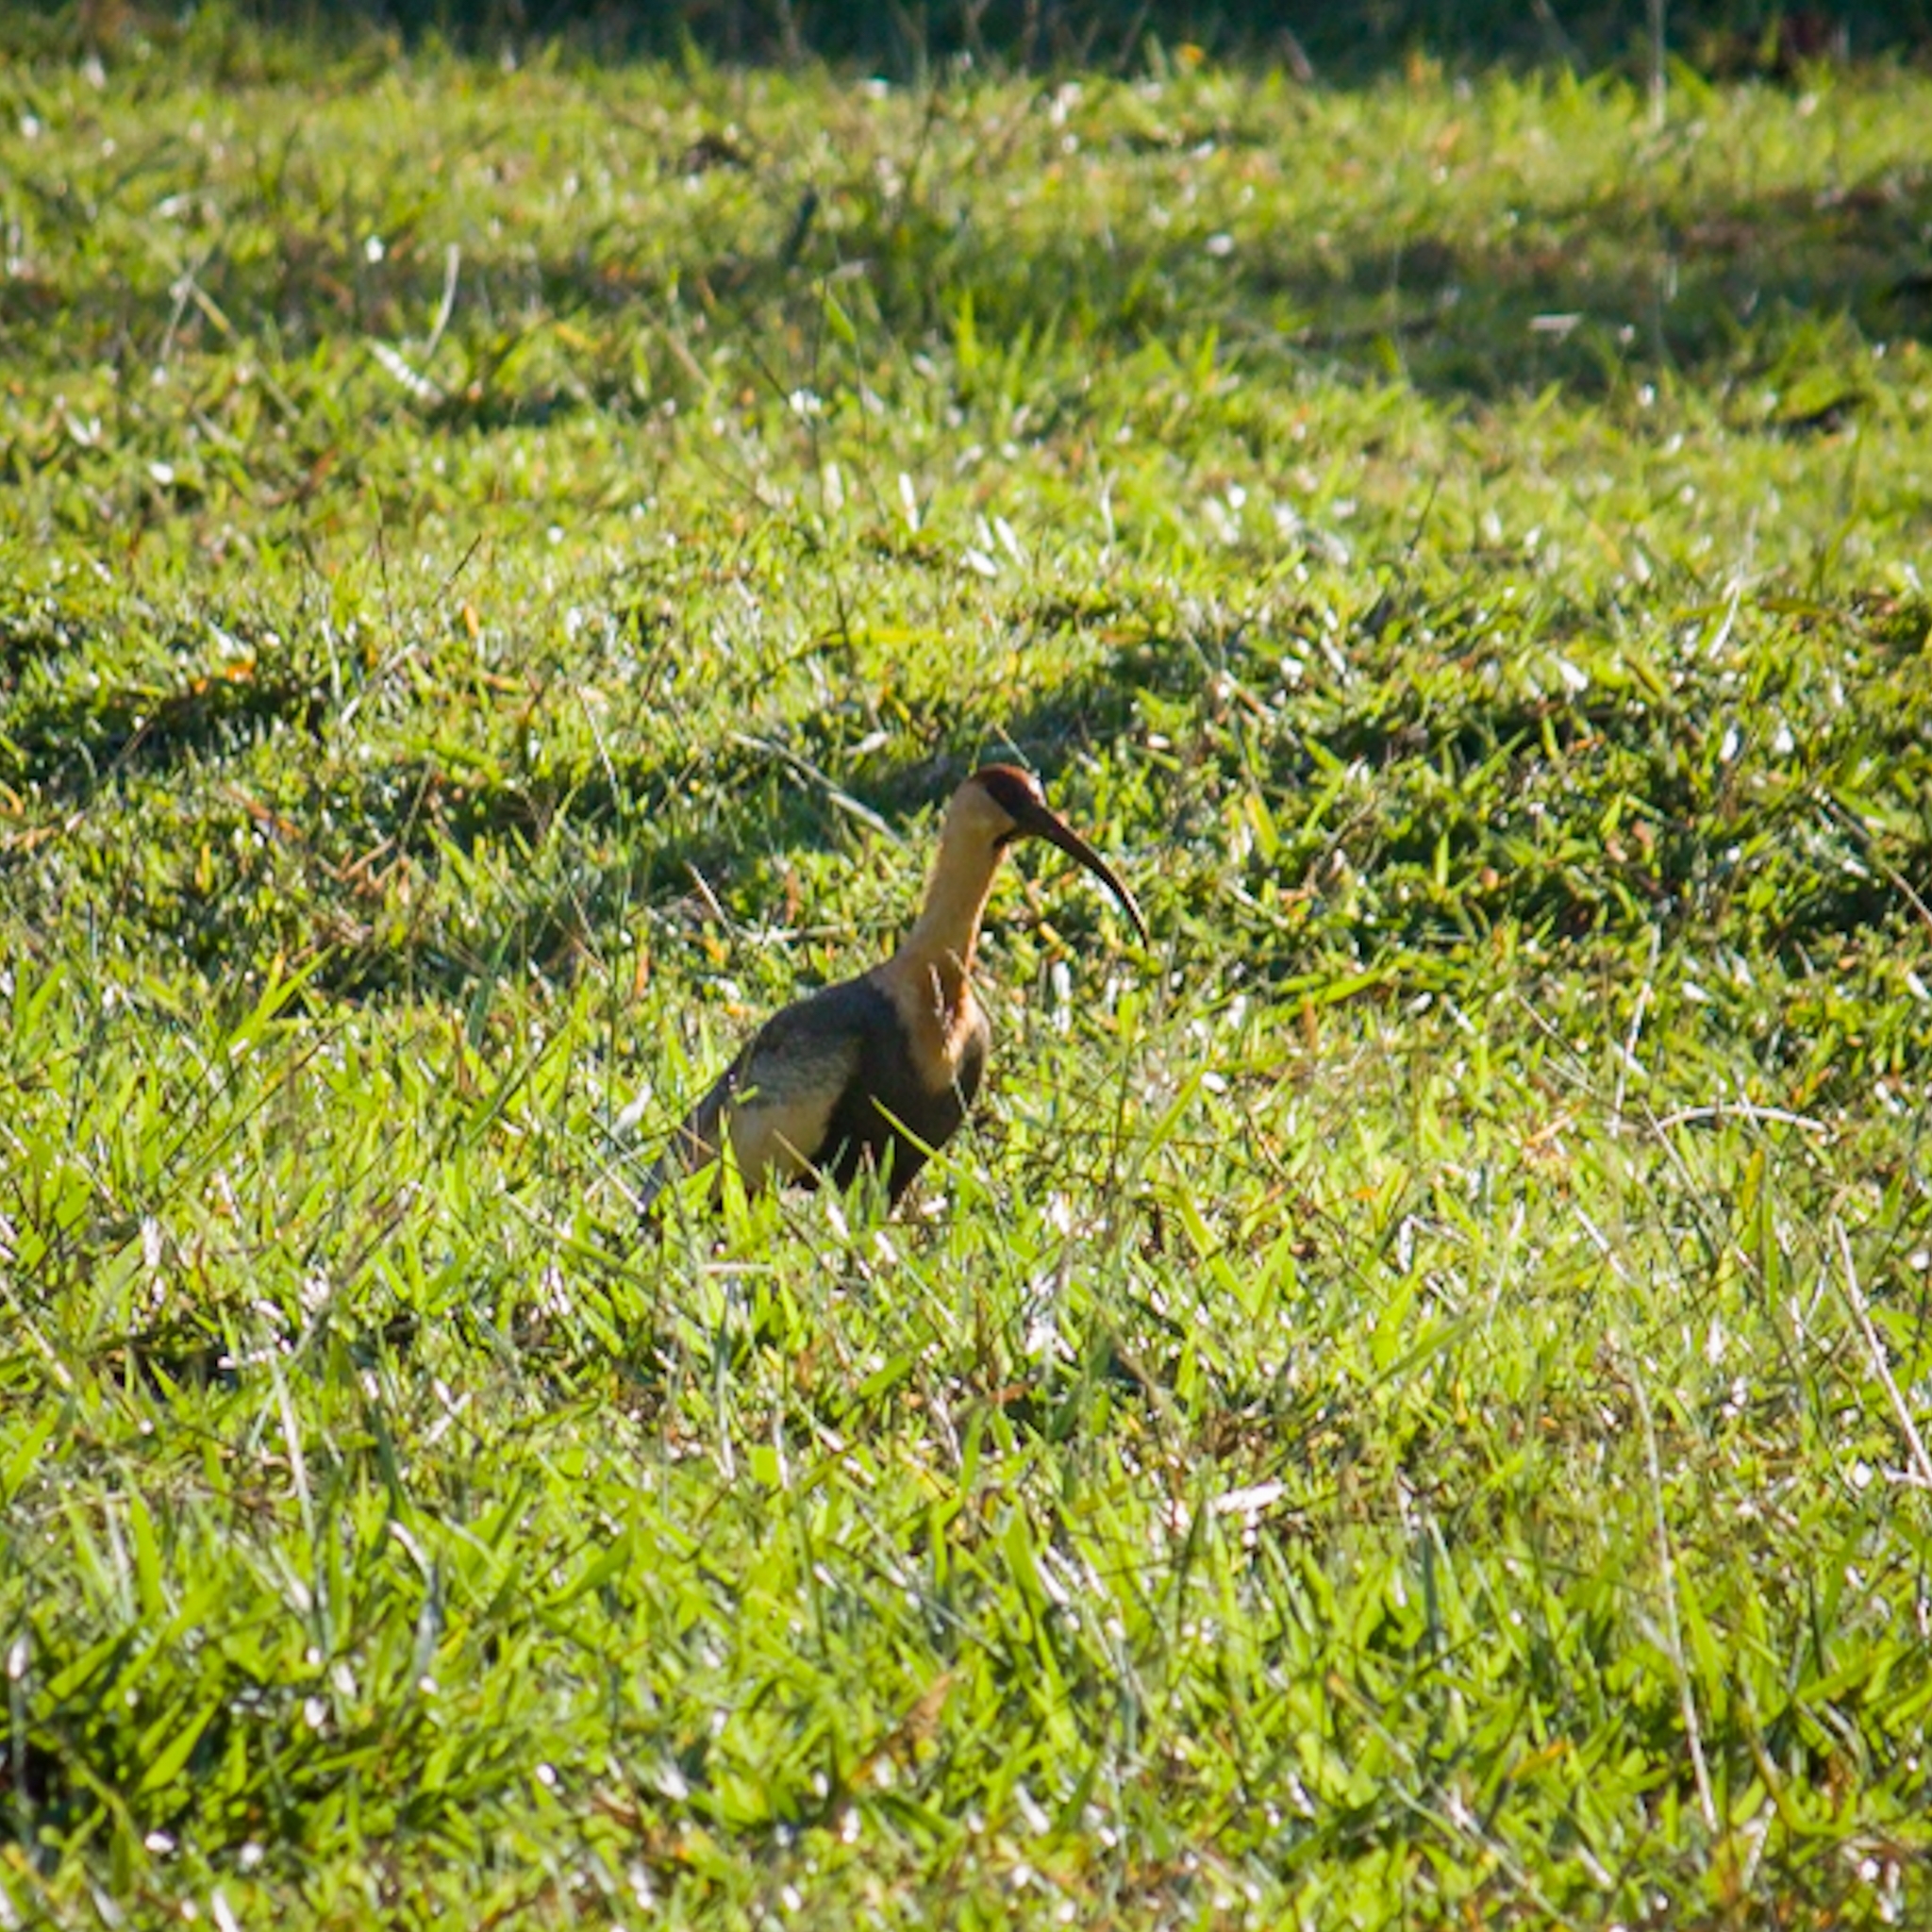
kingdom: Animalia
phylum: Chordata
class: Aves
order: Pelecaniformes
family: Threskiornithidae
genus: Theristicus
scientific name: Theristicus caudatus
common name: Buff-necked ibis
